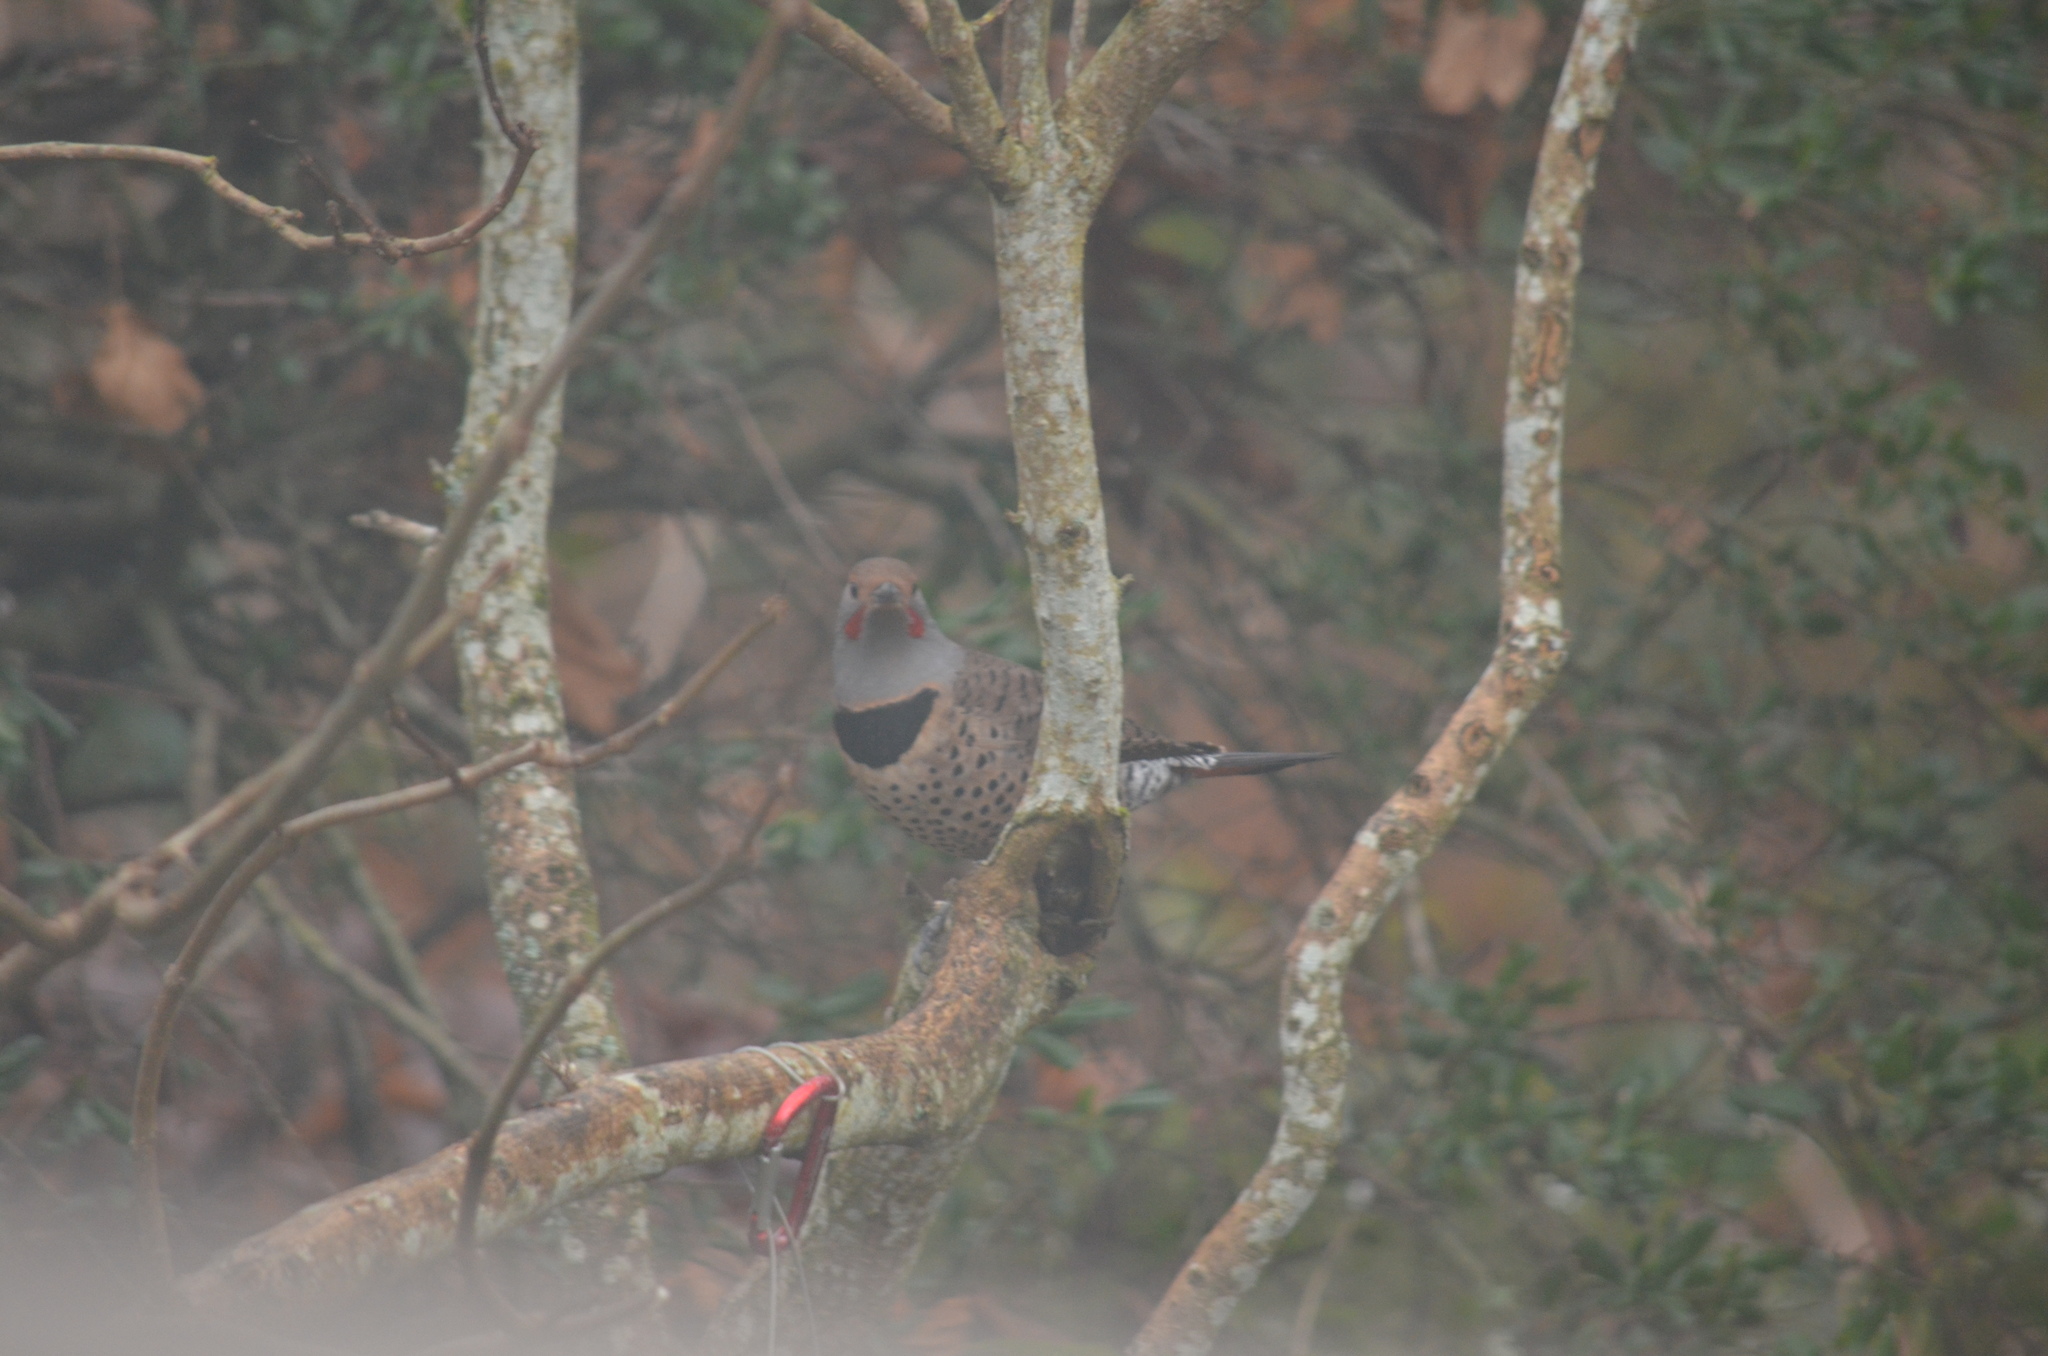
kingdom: Animalia
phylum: Chordata
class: Aves
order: Piciformes
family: Picidae
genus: Colaptes
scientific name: Colaptes auratus
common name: Northern flicker
